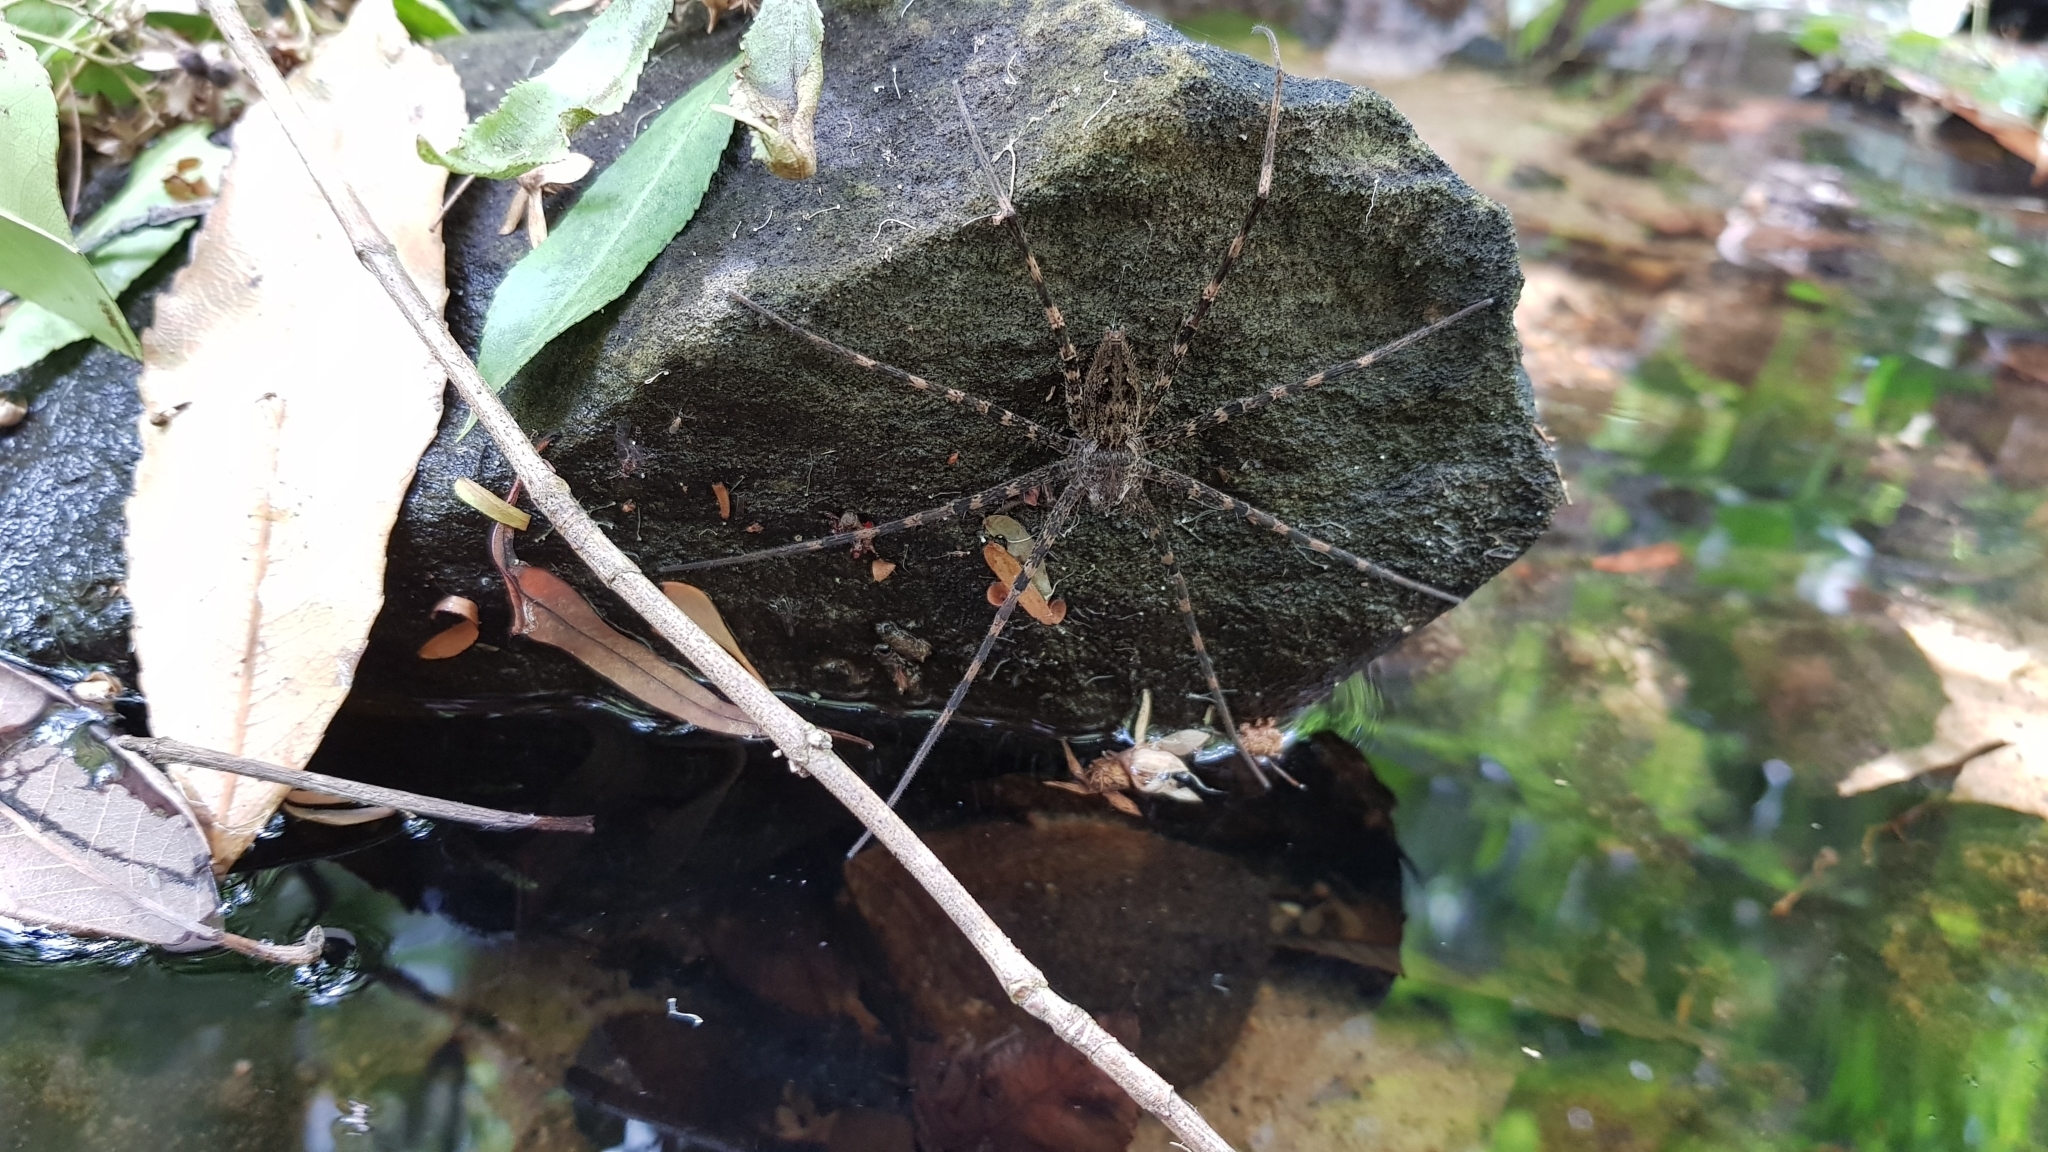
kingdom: Animalia
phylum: Arthropoda
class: Arachnida
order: Araneae
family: Pisauridae
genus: Megadolomedes
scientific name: Megadolomedes australianus
